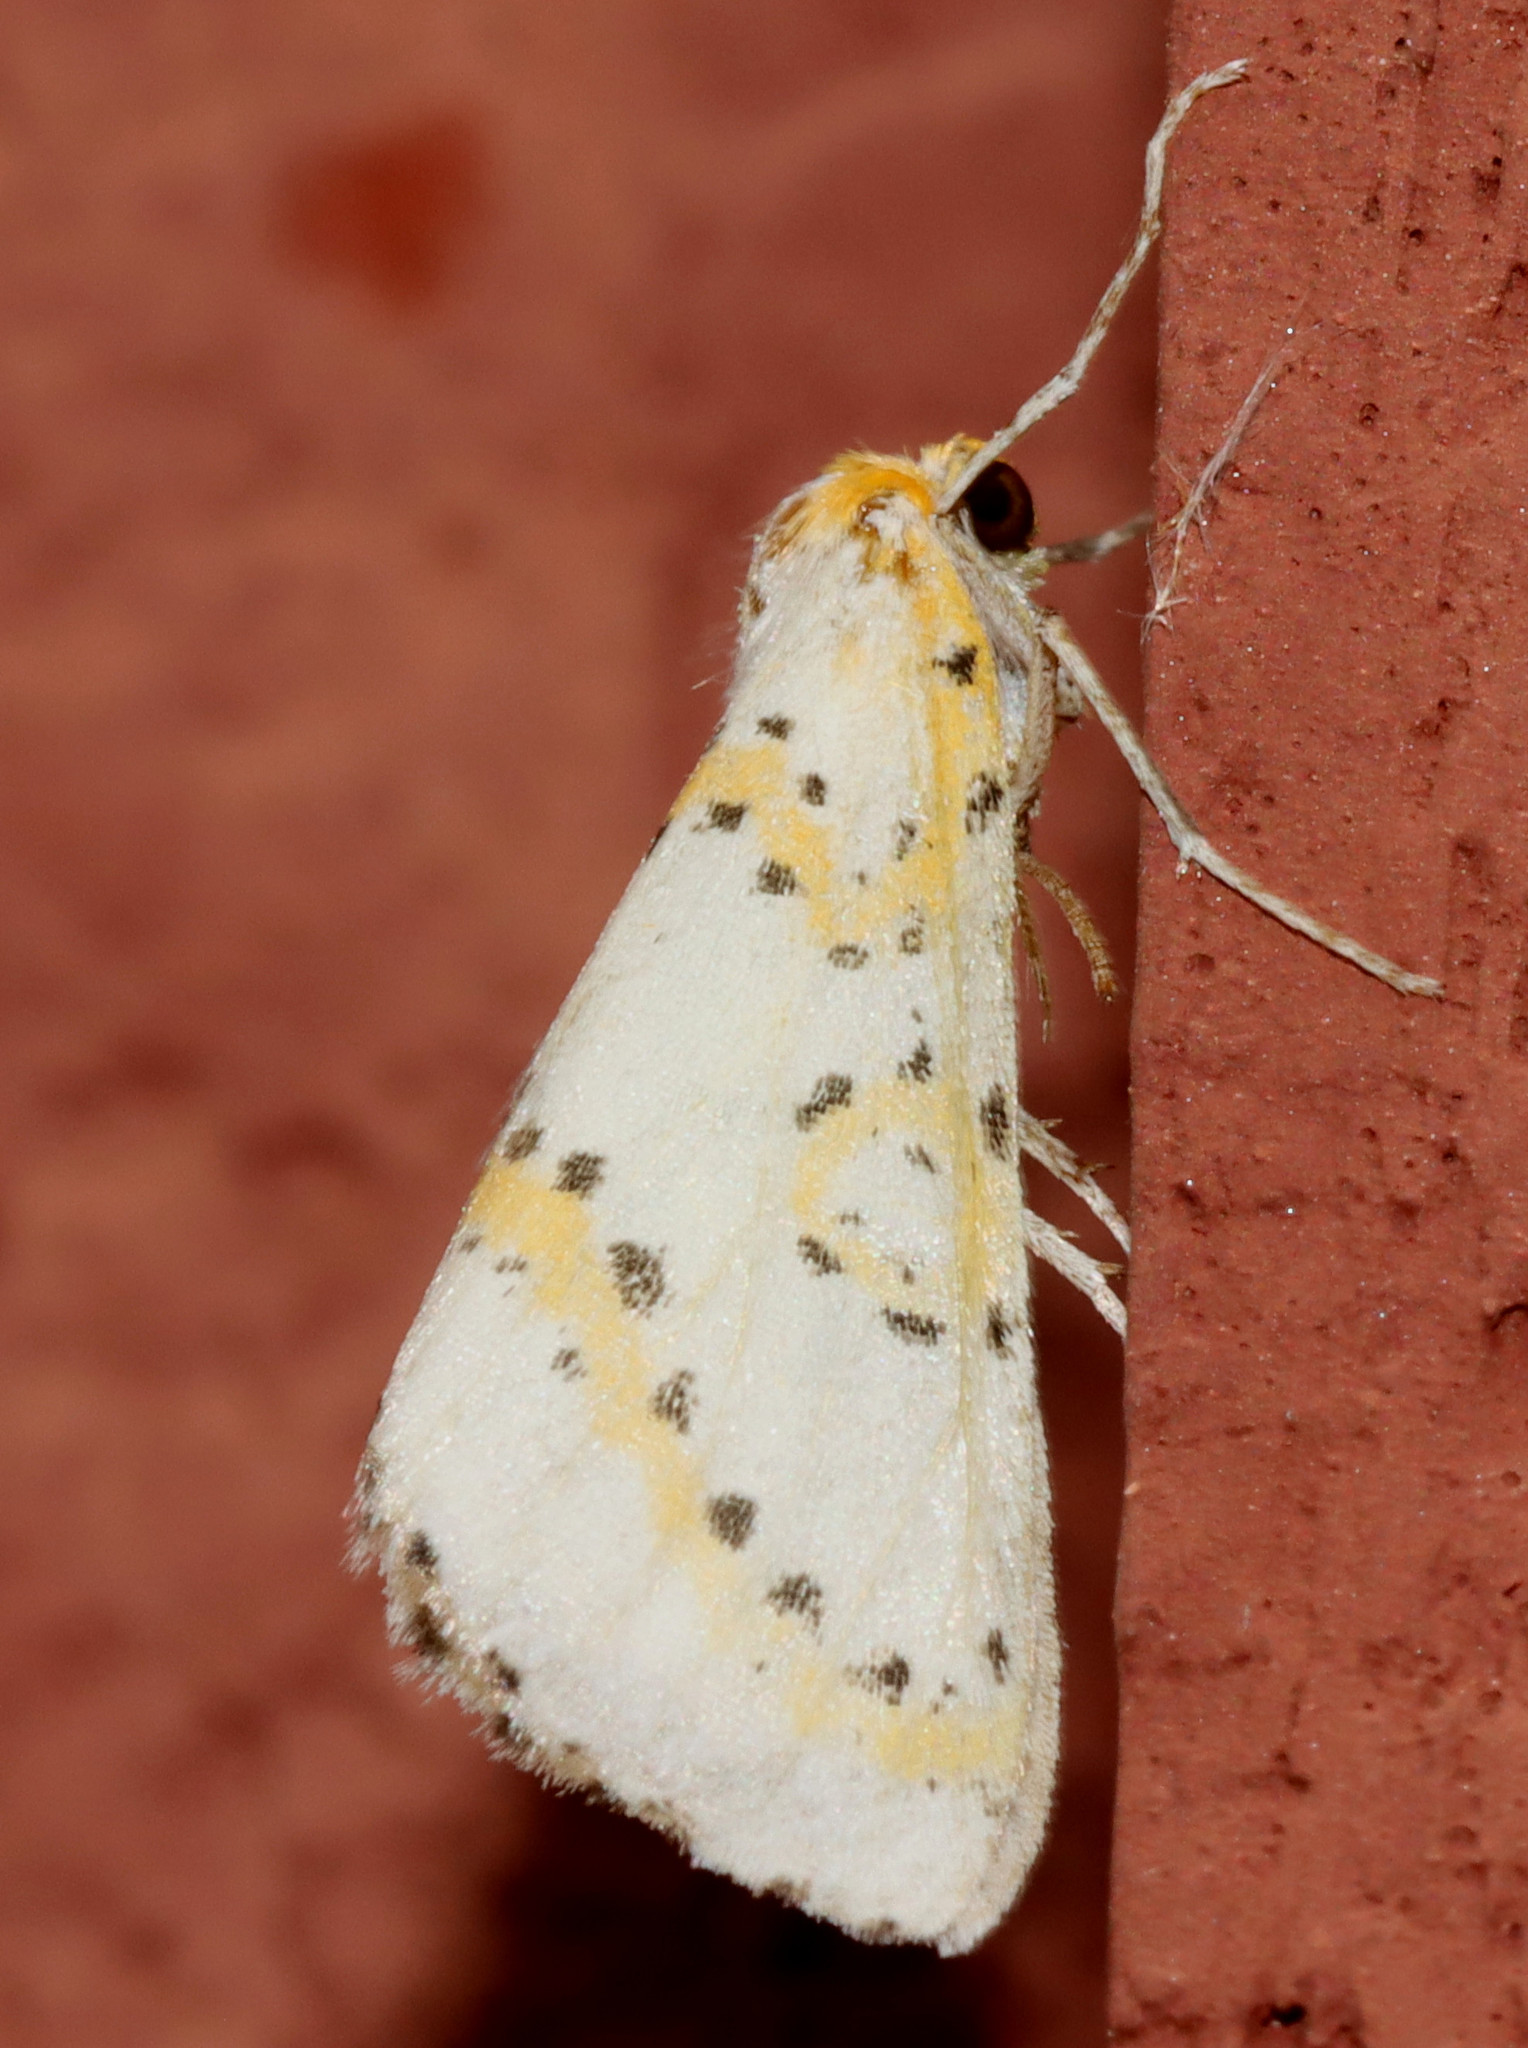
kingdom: Animalia
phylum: Arthropoda
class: Insecta
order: Lepidoptera
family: Geometridae
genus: Philtraea
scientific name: Philtraea monillata
